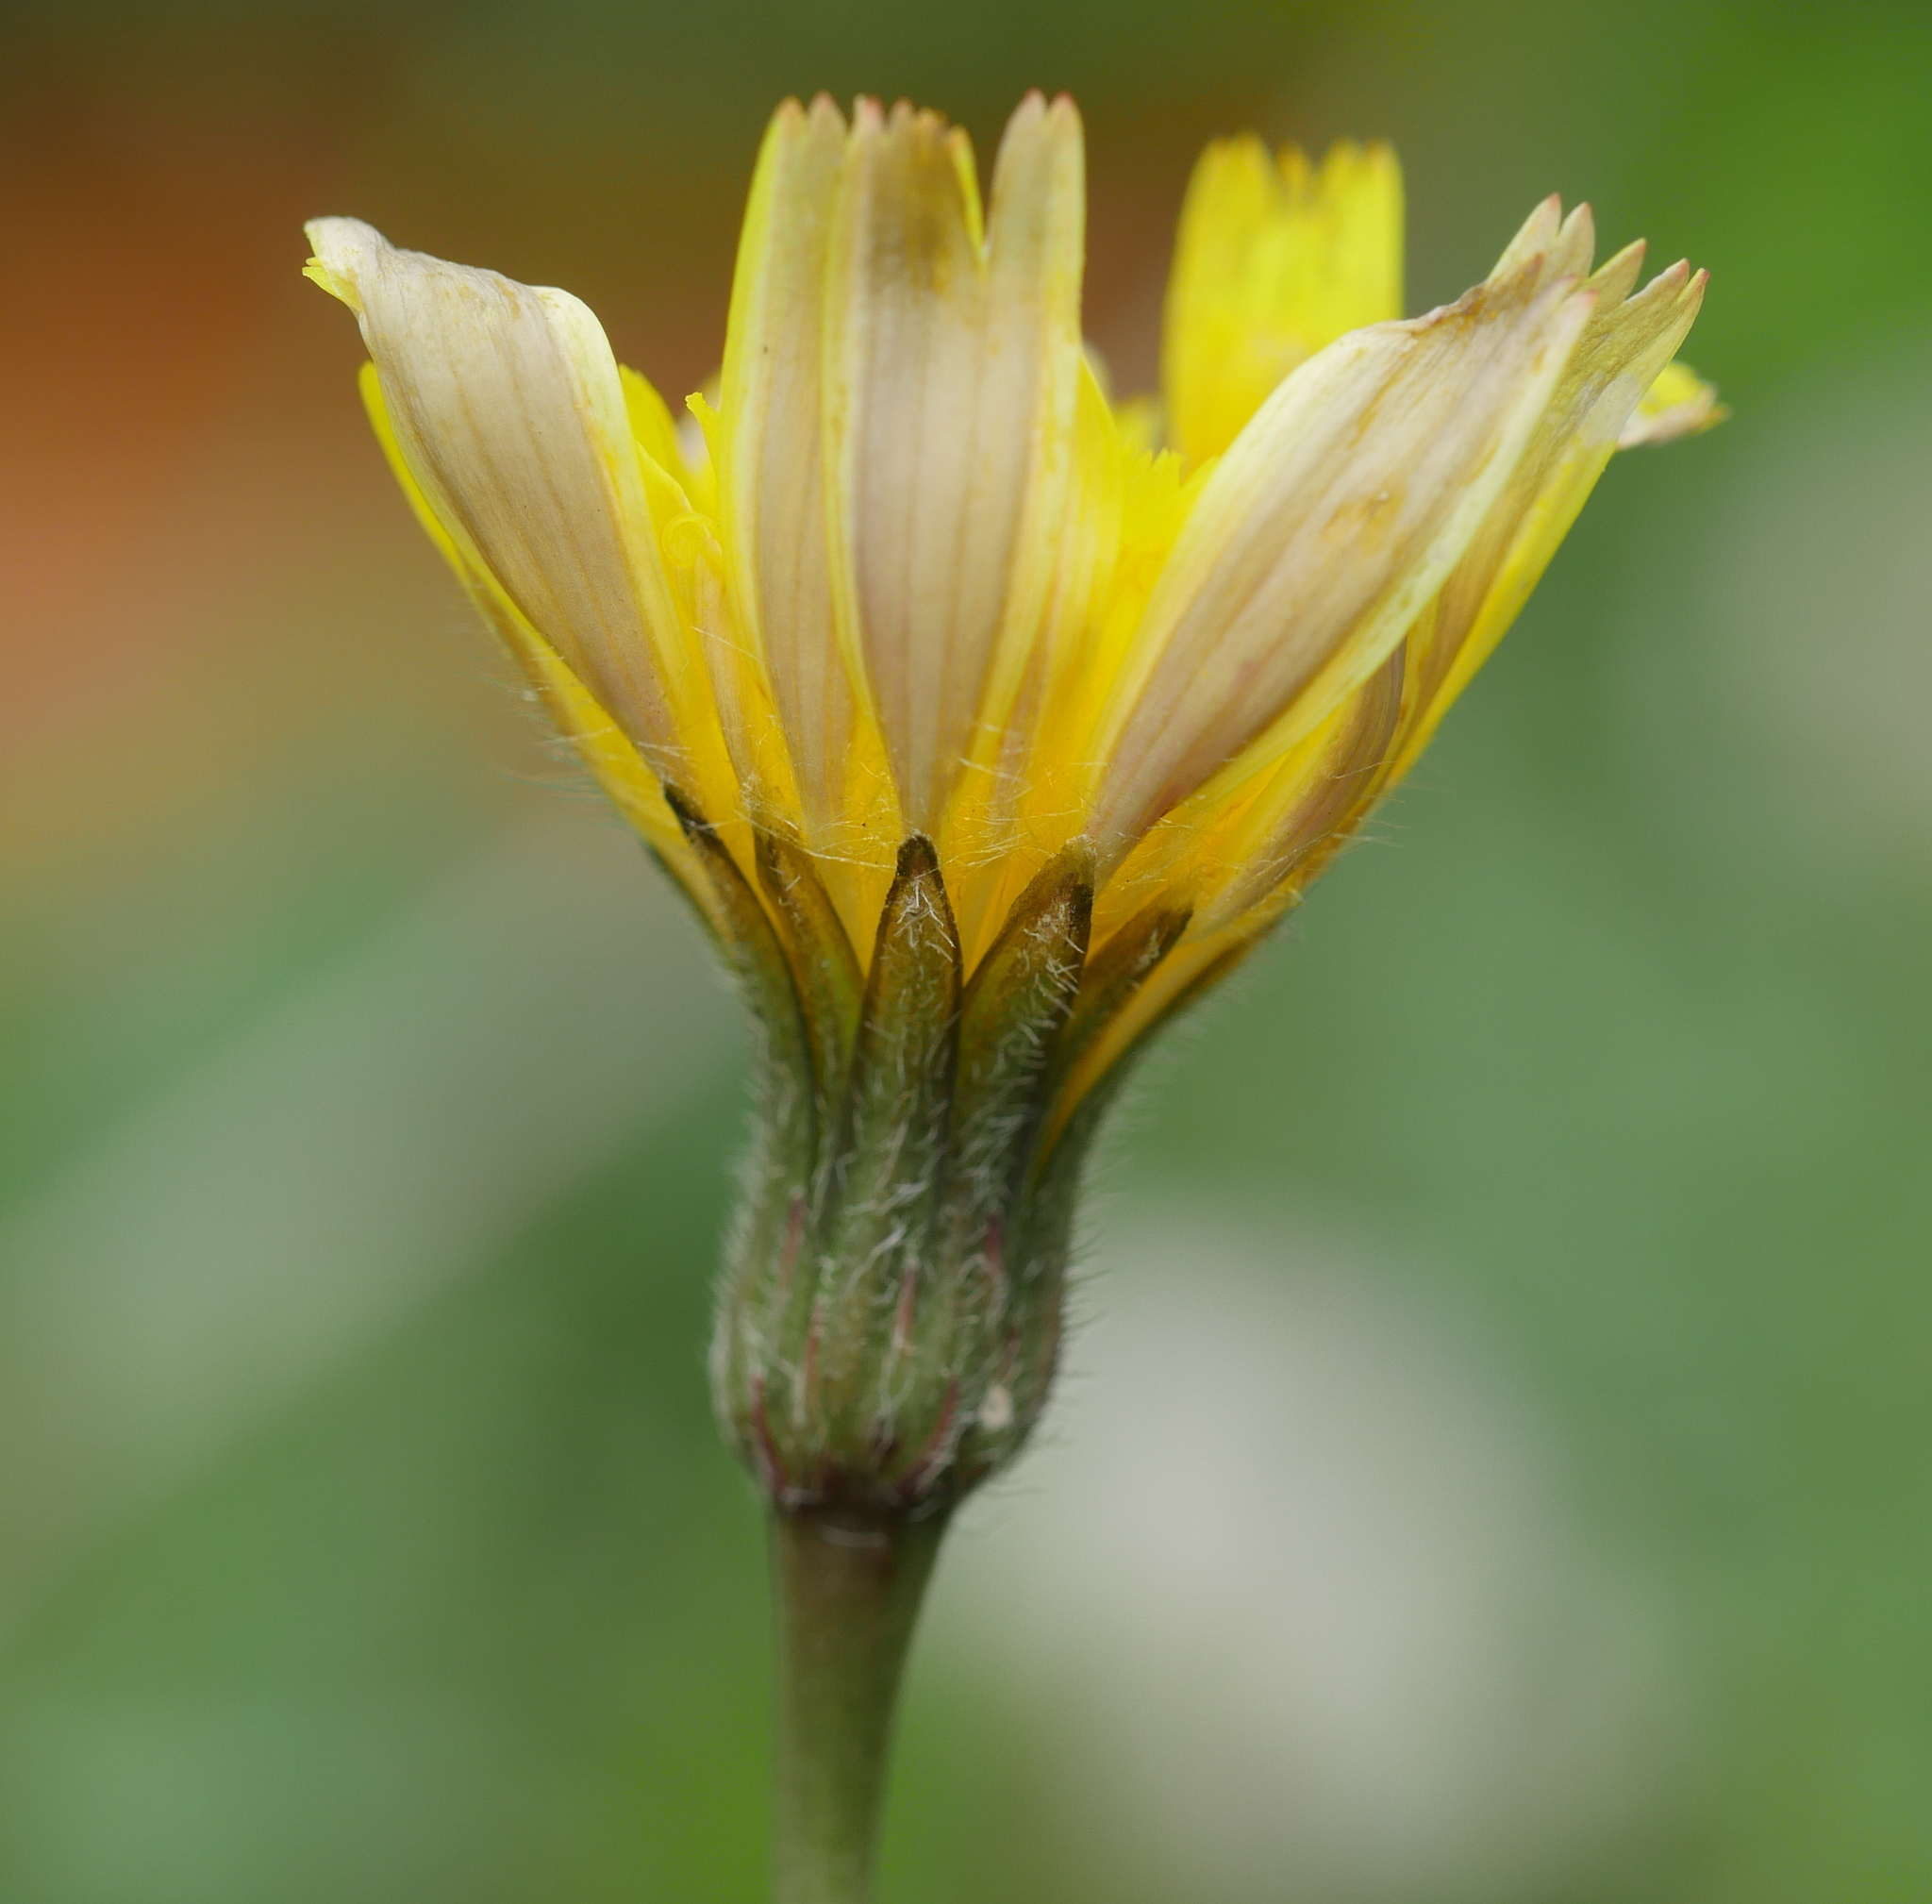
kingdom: Plantae
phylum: Tracheophyta
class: Magnoliopsida
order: Asterales
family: Asteraceae
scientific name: Asteraceae
